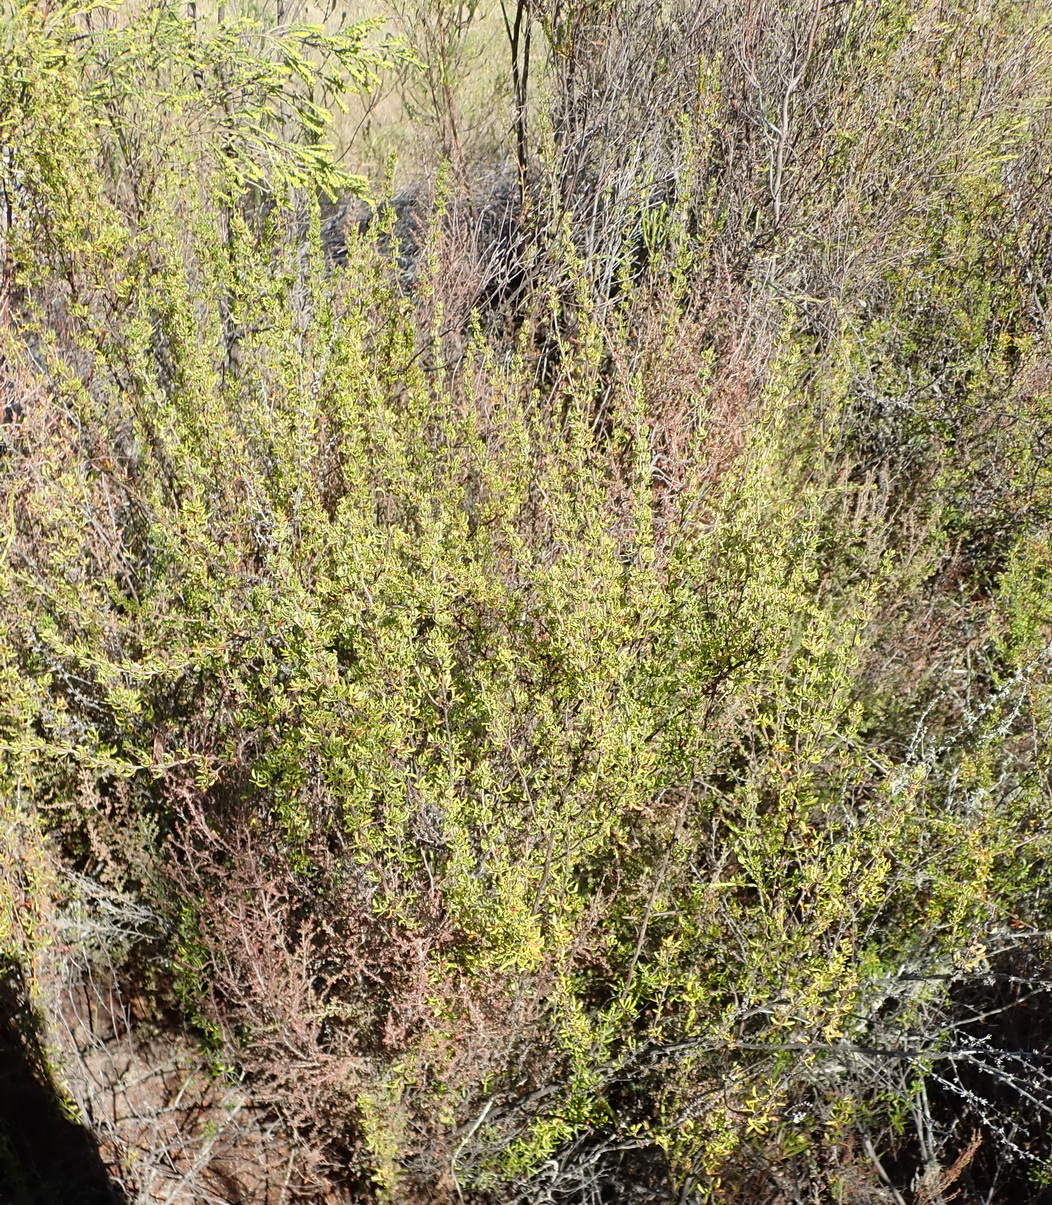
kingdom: Plantae
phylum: Tracheophyta
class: Magnoliopsida
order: Rosales
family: Rosaceae
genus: Cliffortia
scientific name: Cliffortia falcata
